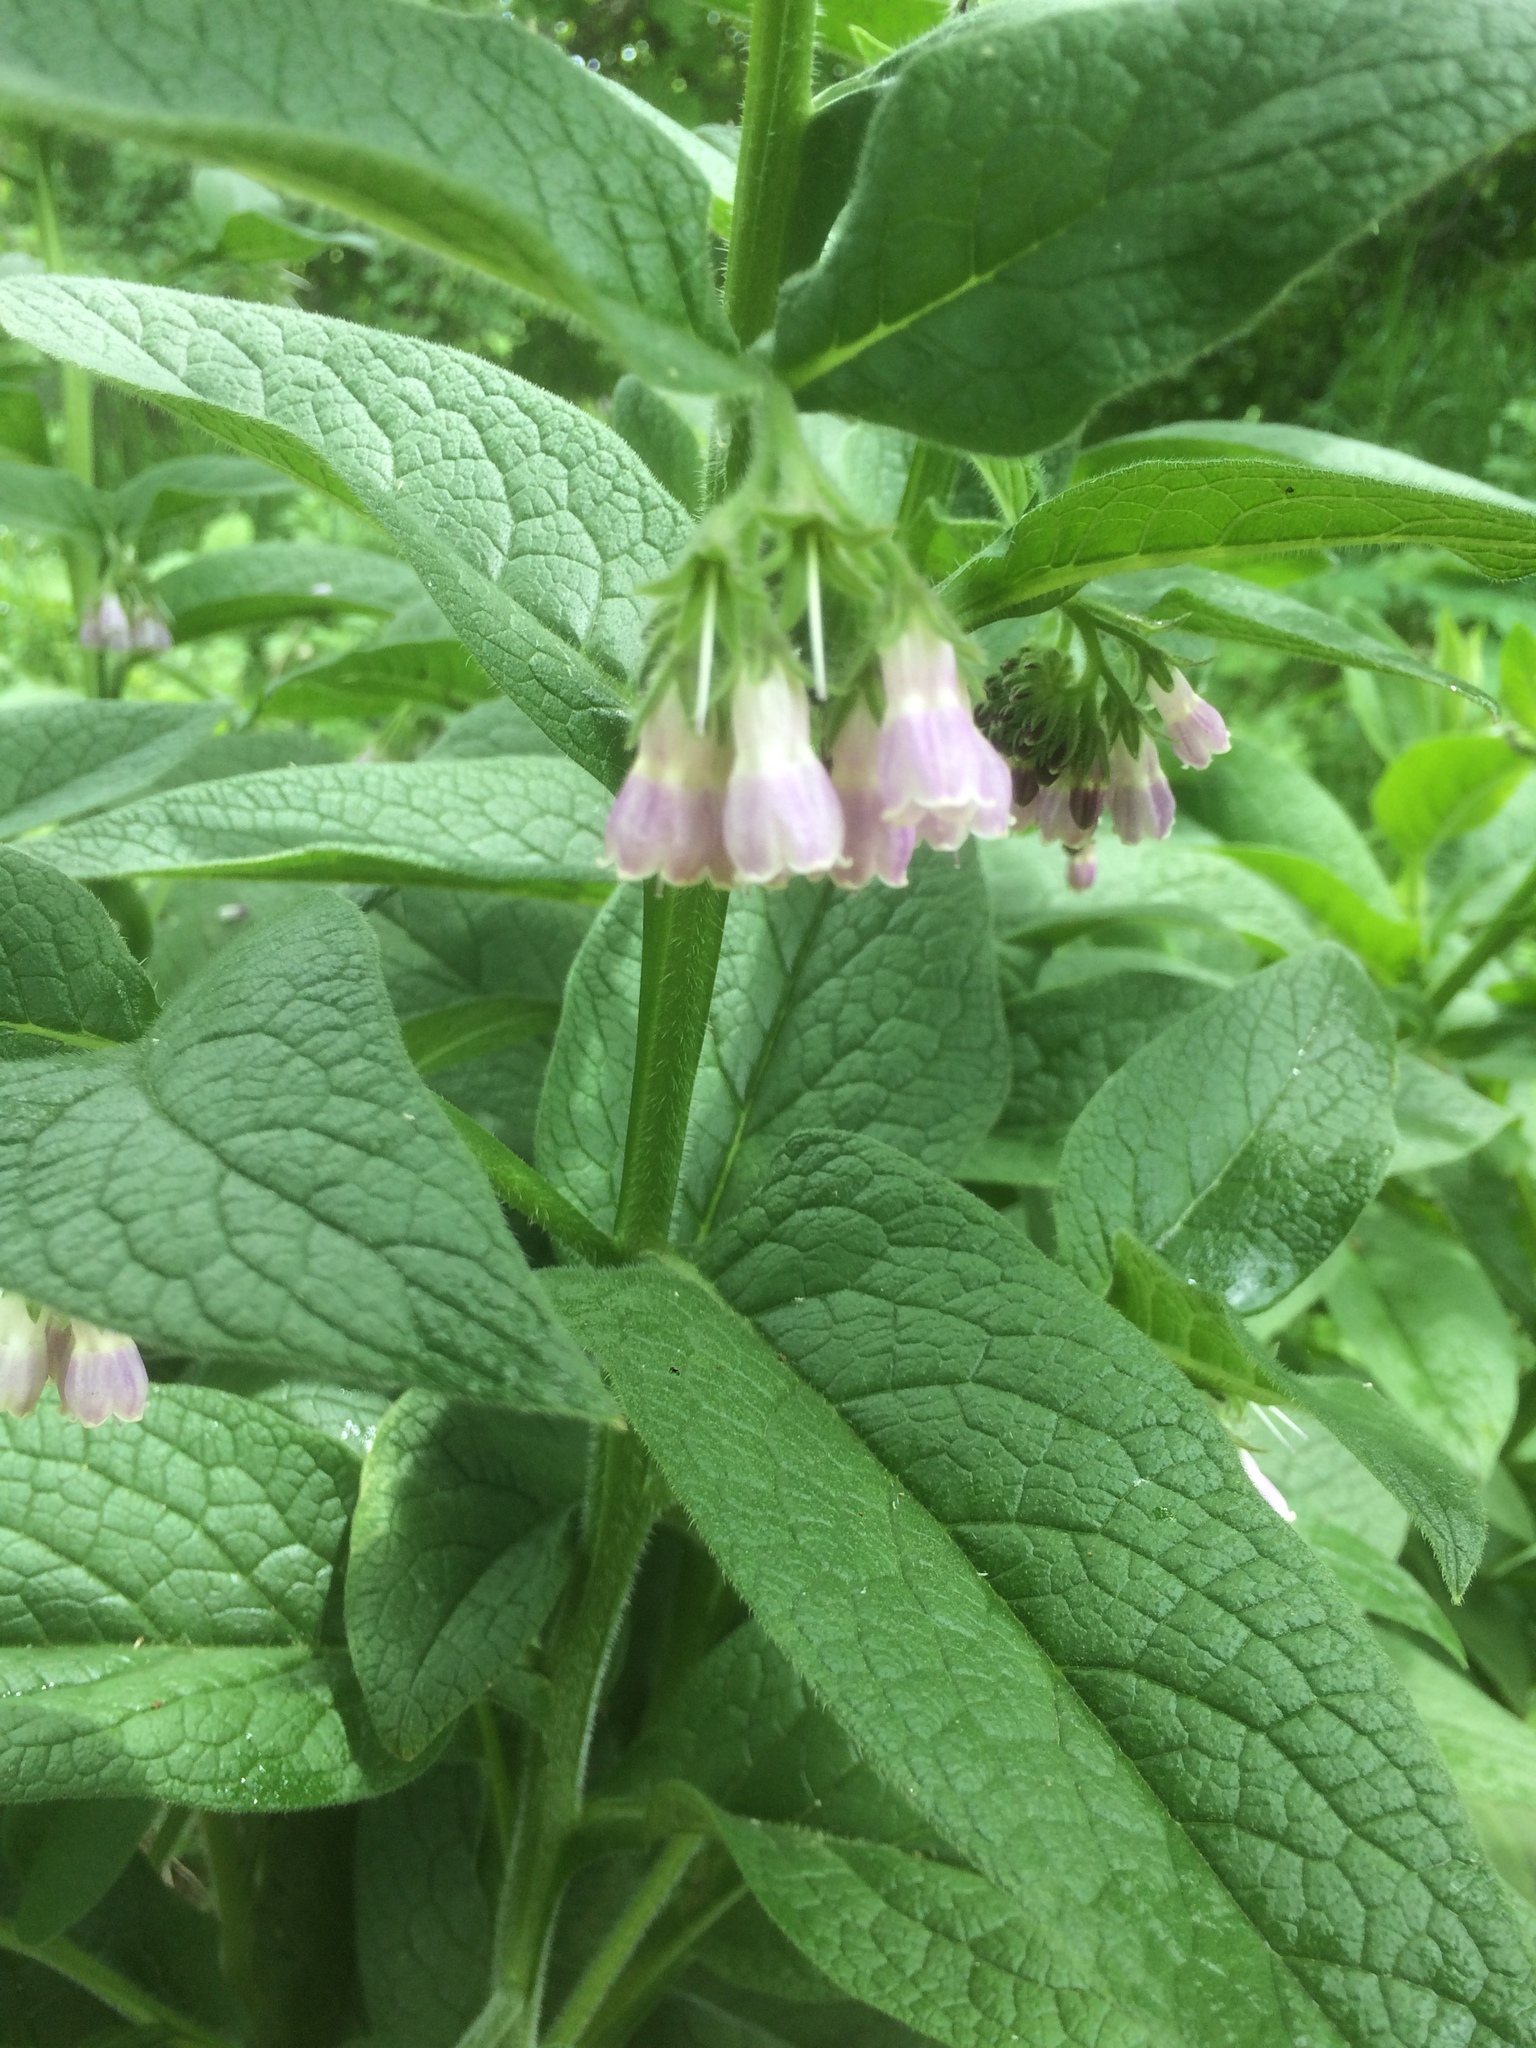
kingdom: Plantae
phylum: Tracheophyta
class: Magnoliopsida
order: Boraginales
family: Boraginaceae
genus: Symphytum
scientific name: Symphytum officinale
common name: Common comfrey
